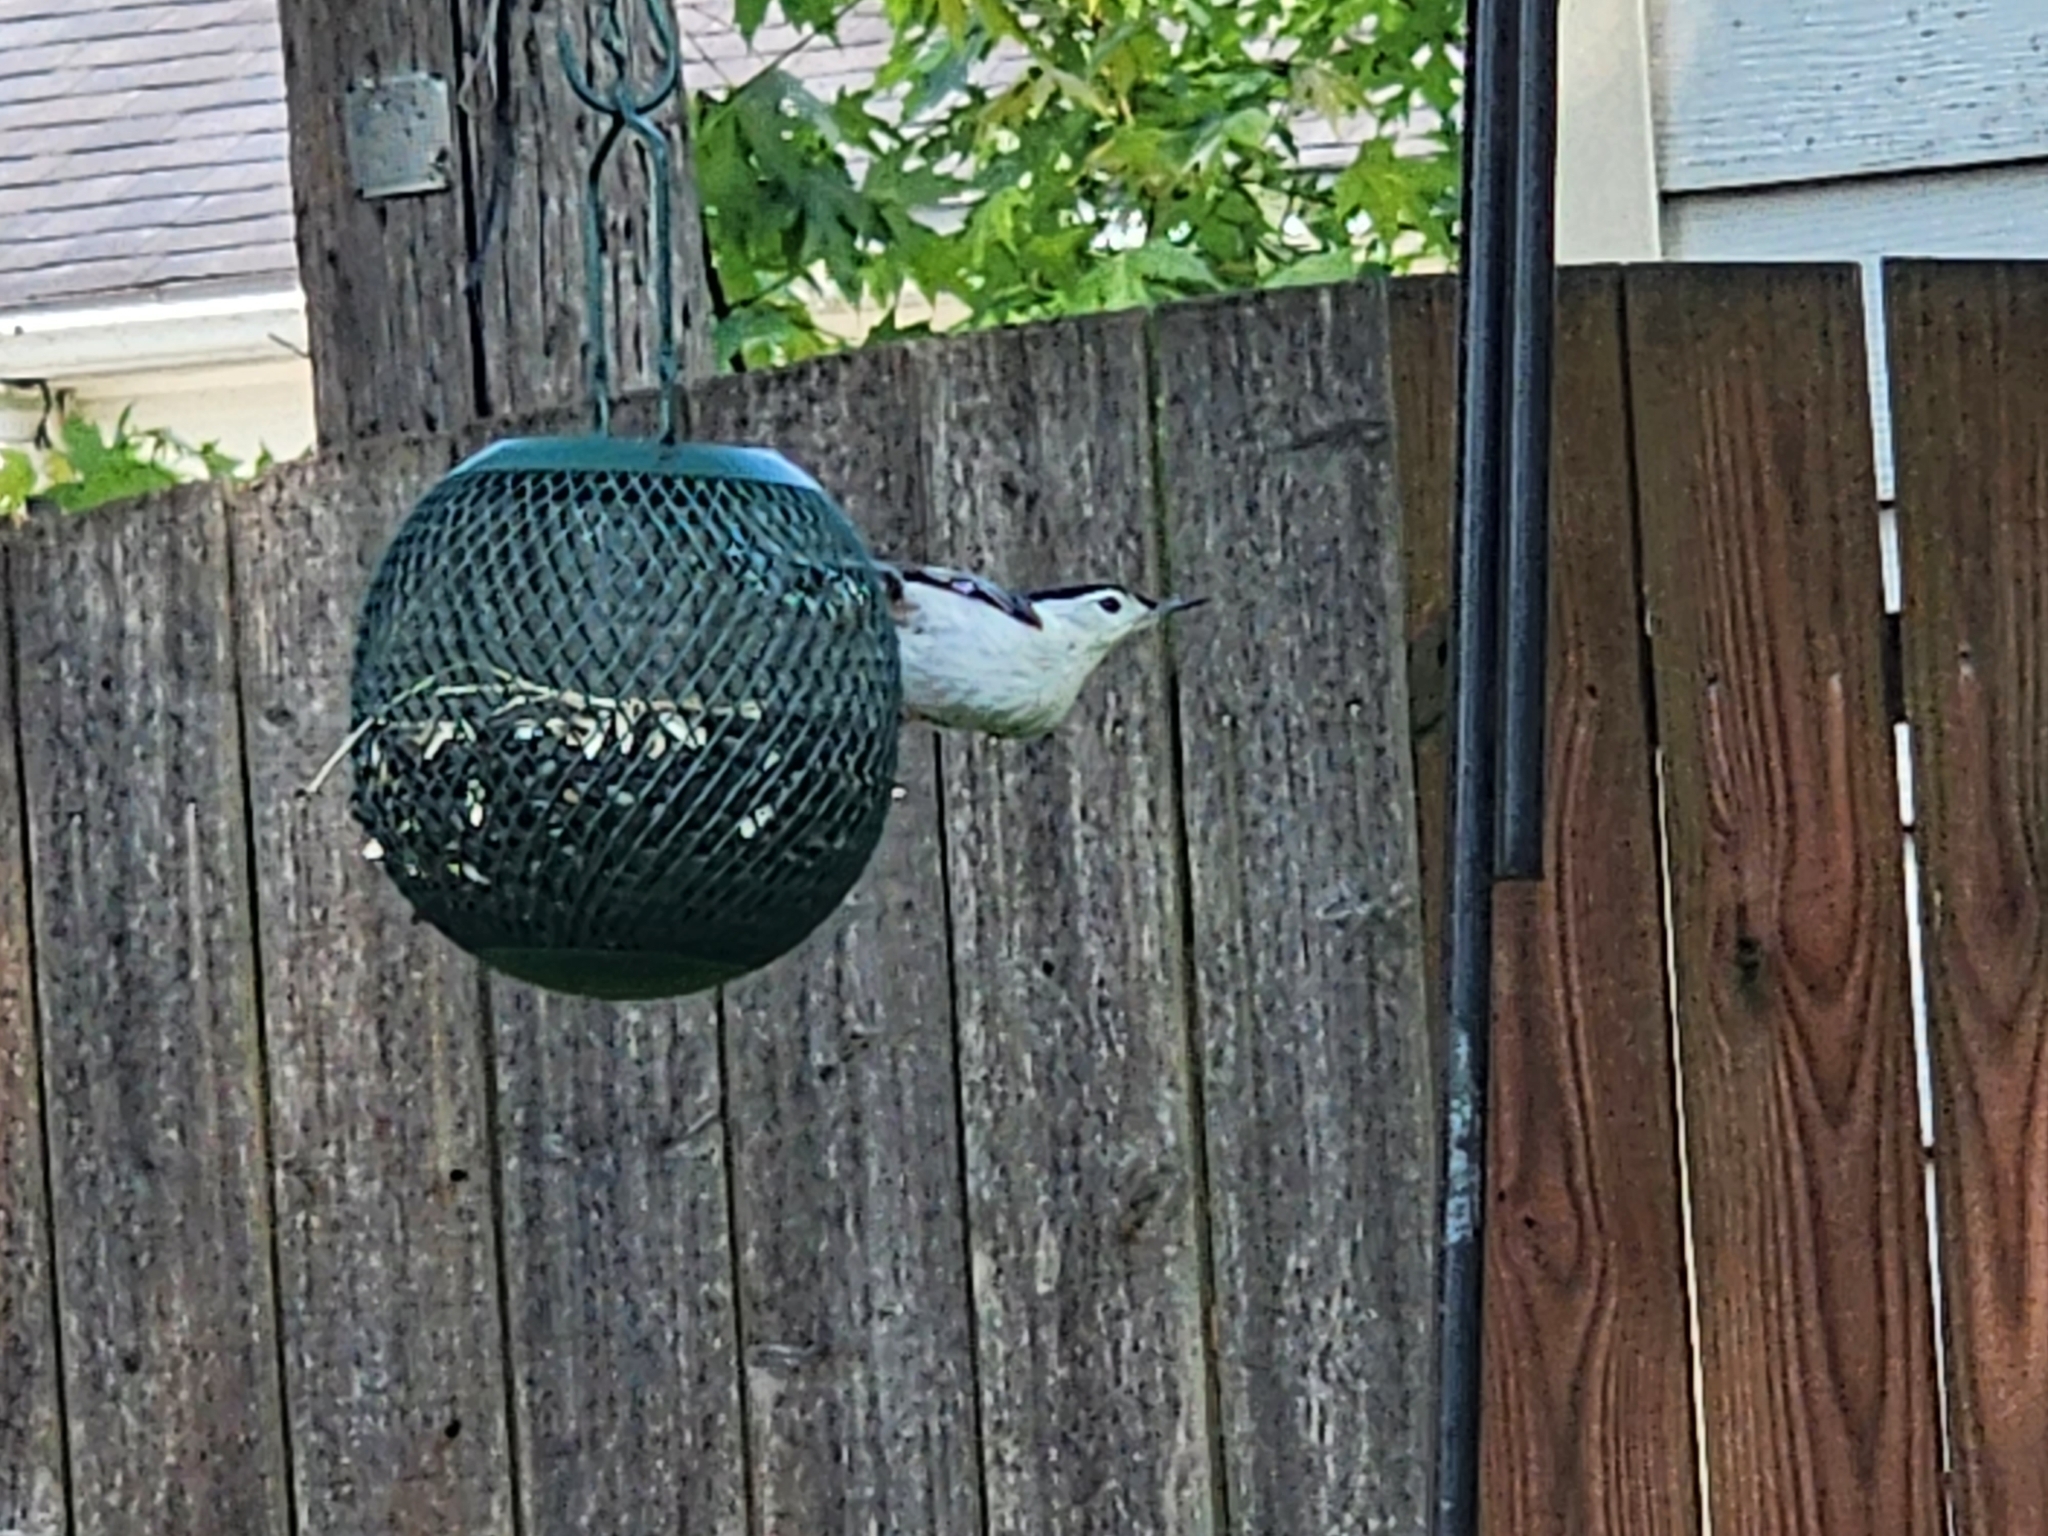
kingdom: Animalia
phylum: Chordata
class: Aves
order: Passeriformes
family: Sittidae
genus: Sitta
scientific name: Sitta carolinensis
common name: White-breasted nuthatch
